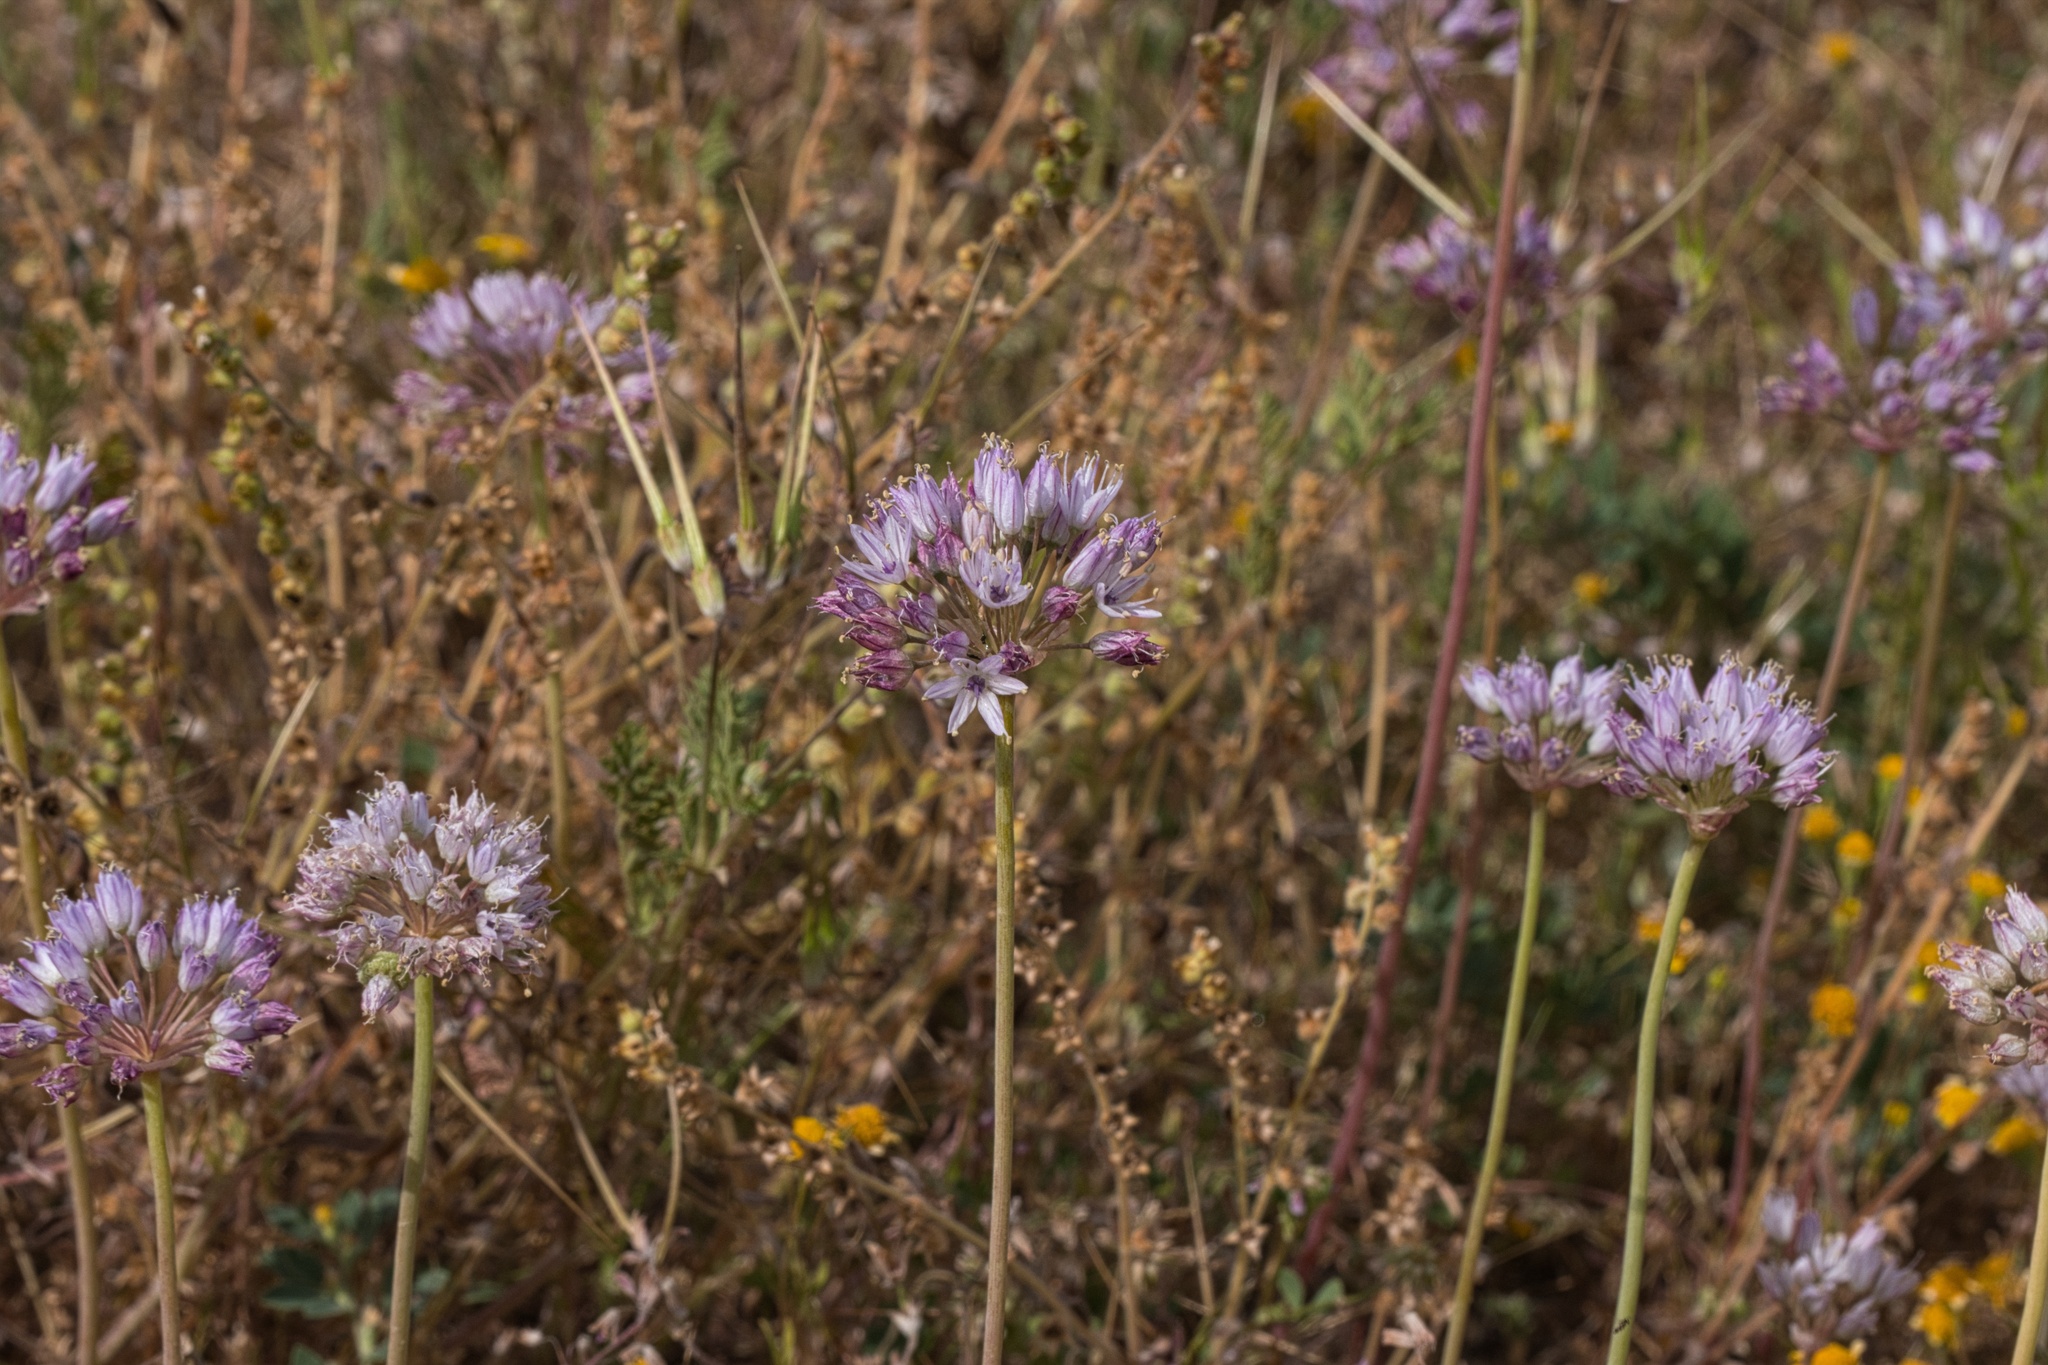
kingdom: Plantae
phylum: Tracheophyta
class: Liliopsida
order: Asparagales
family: Amaryllidaceae
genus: Allium
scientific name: Allium howellii
